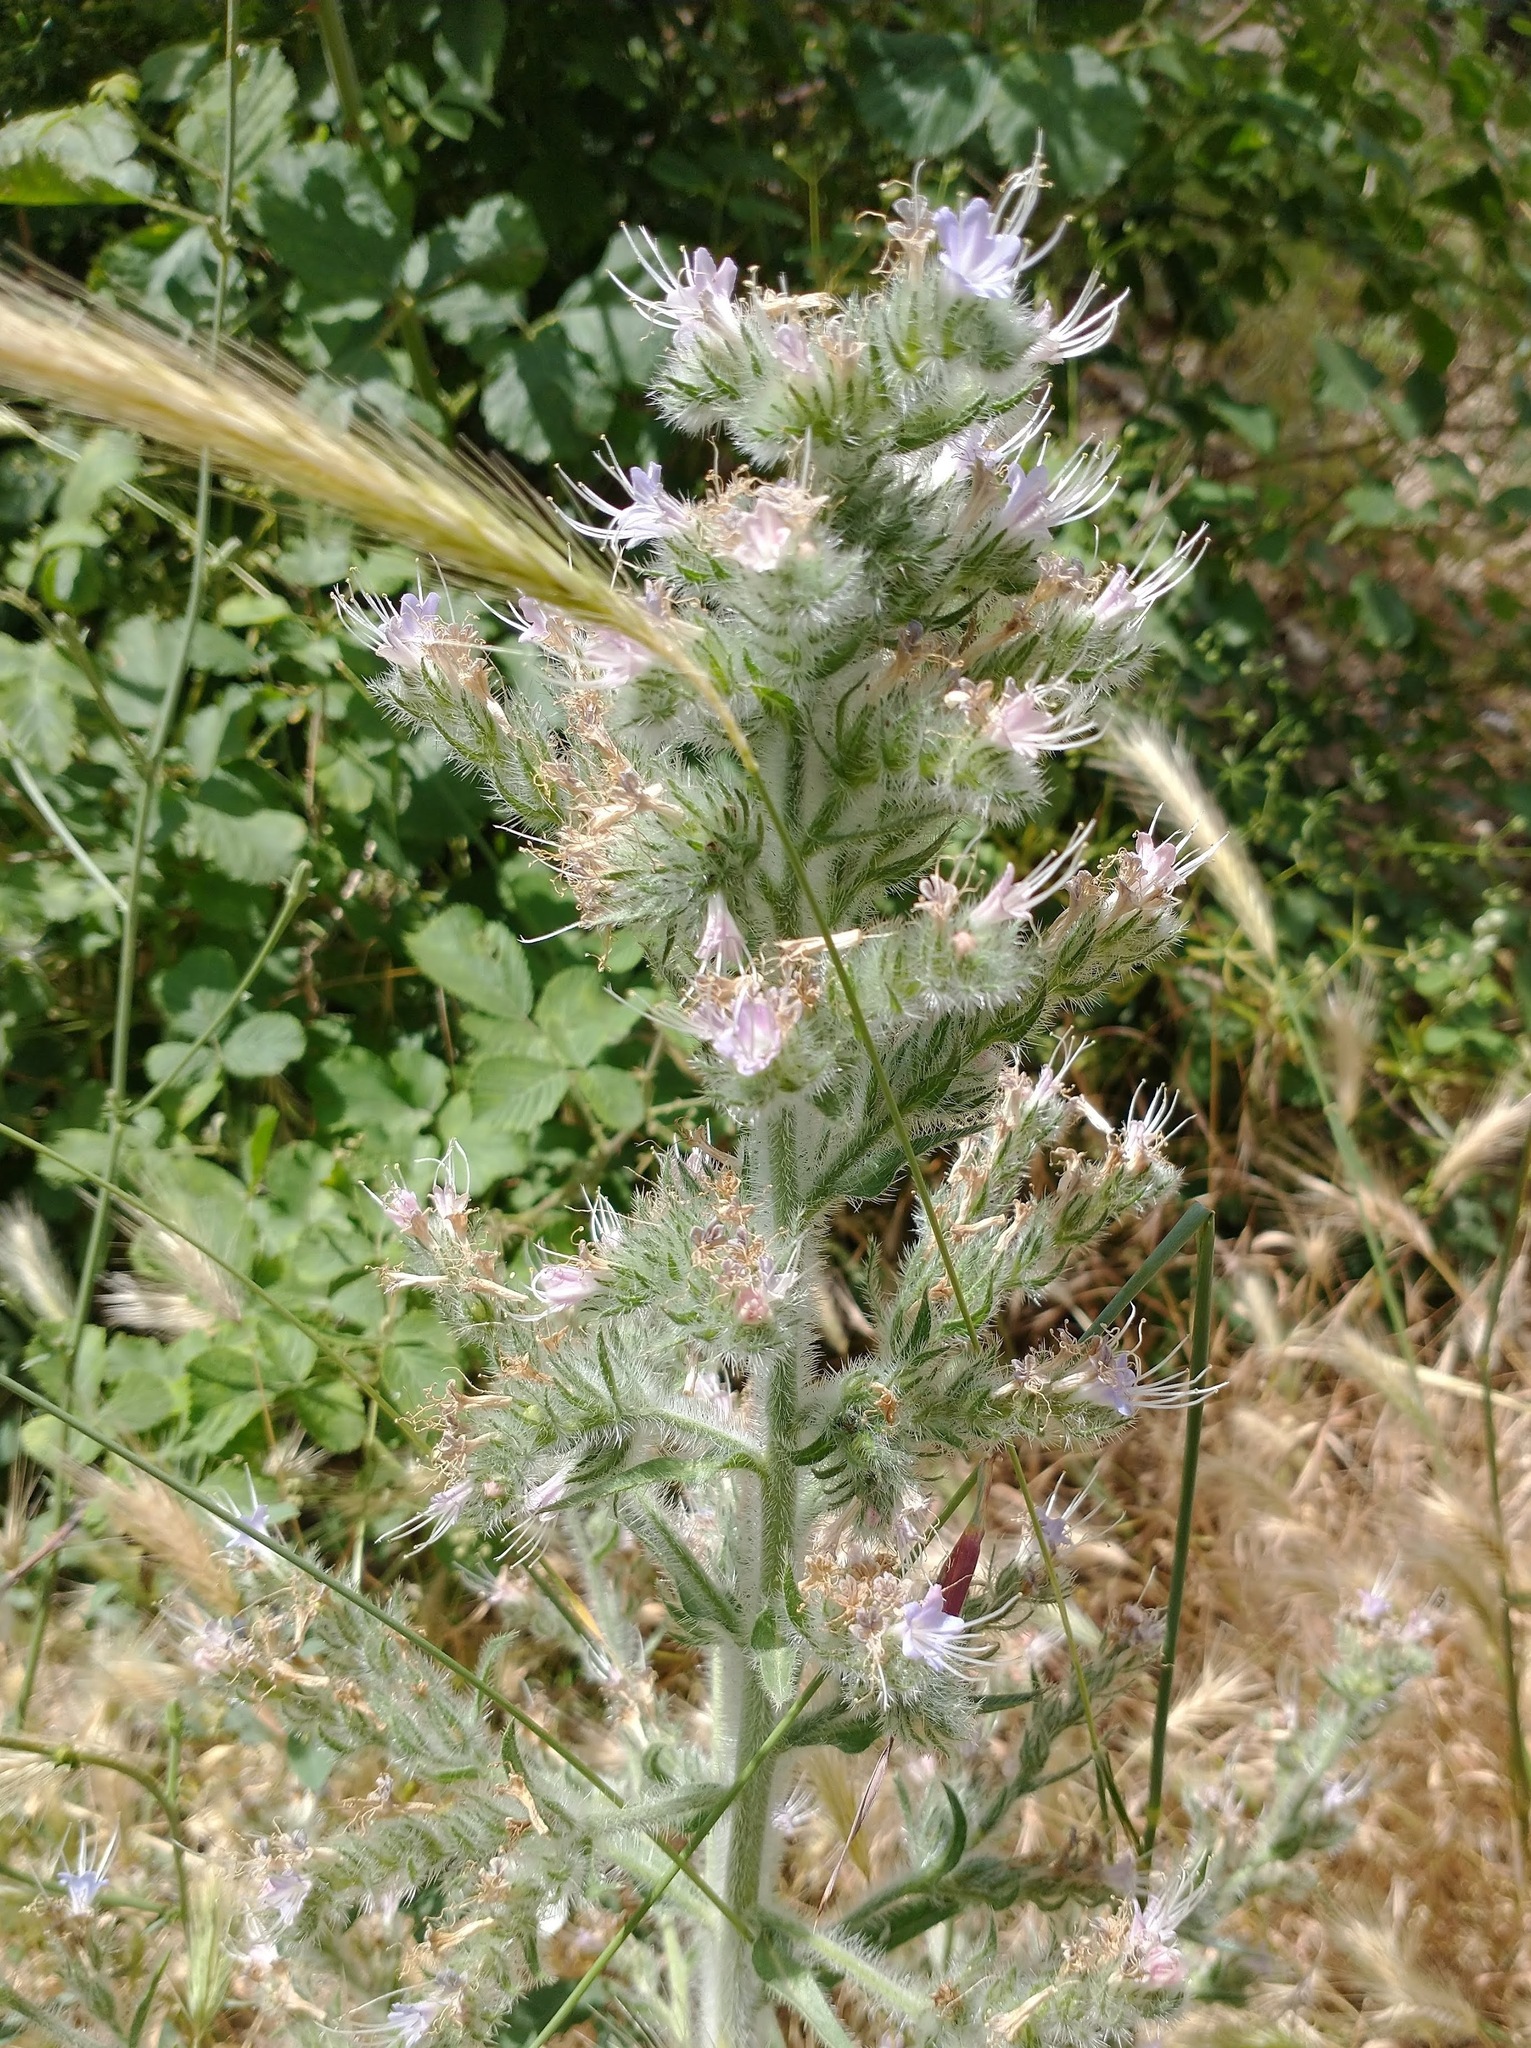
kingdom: Plantae
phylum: Tracheophyta
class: Magnoliopsida
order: Boraginales
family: Boraginaceae
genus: Echium
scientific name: Echium italicum
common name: Italian viper's bugloss
